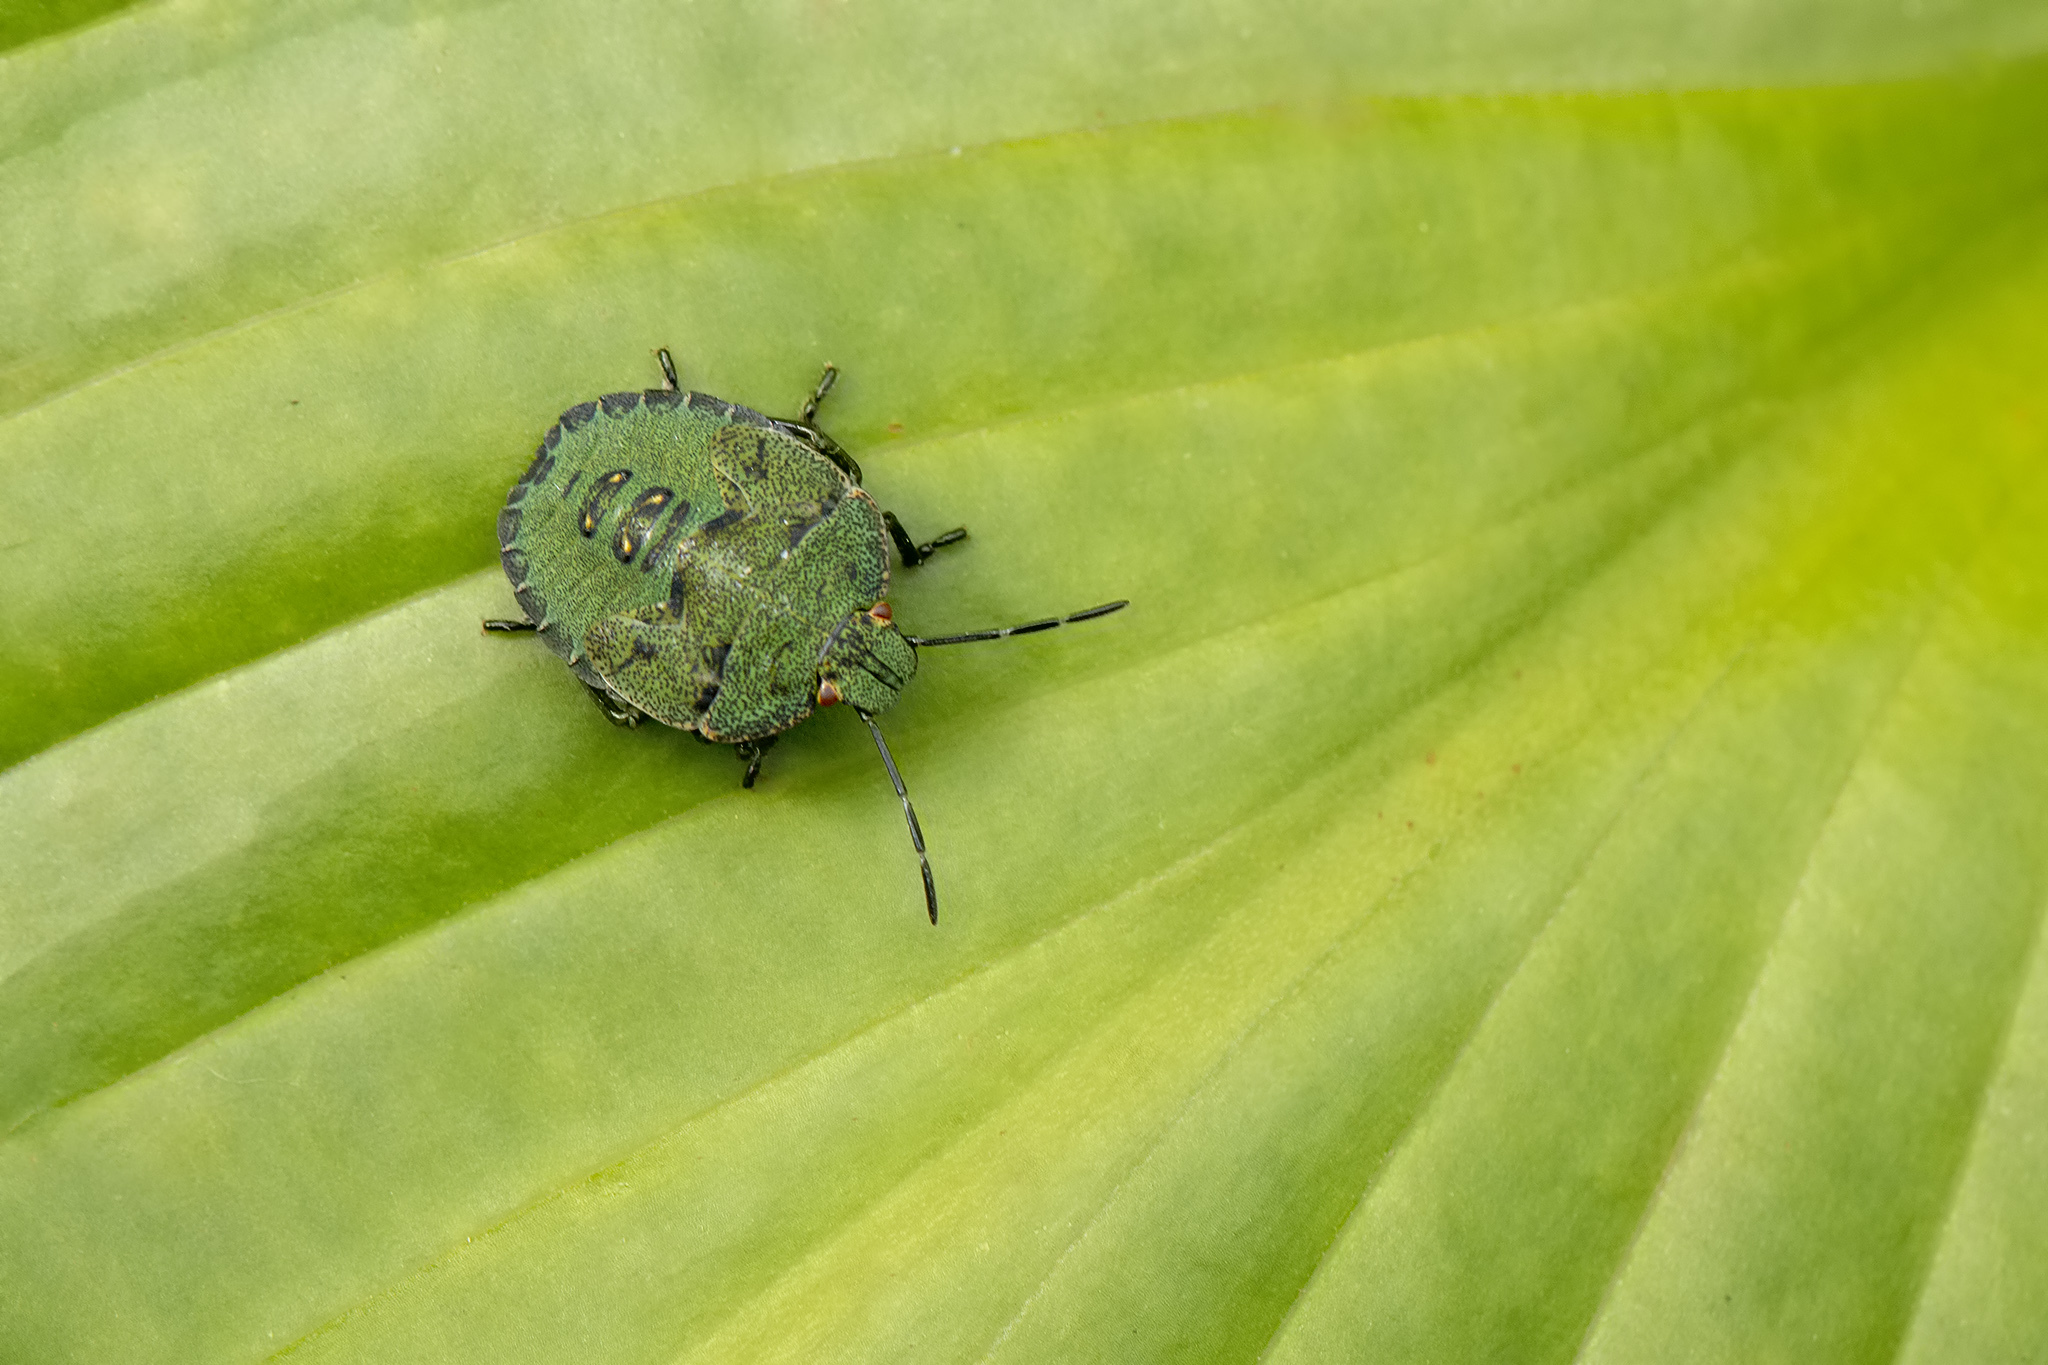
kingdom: Animalia
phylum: Arthropoda
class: Insecta
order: Hemiptera
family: Pentatomidae
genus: Palomena
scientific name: Palomena prasina
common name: Green shieldbug
